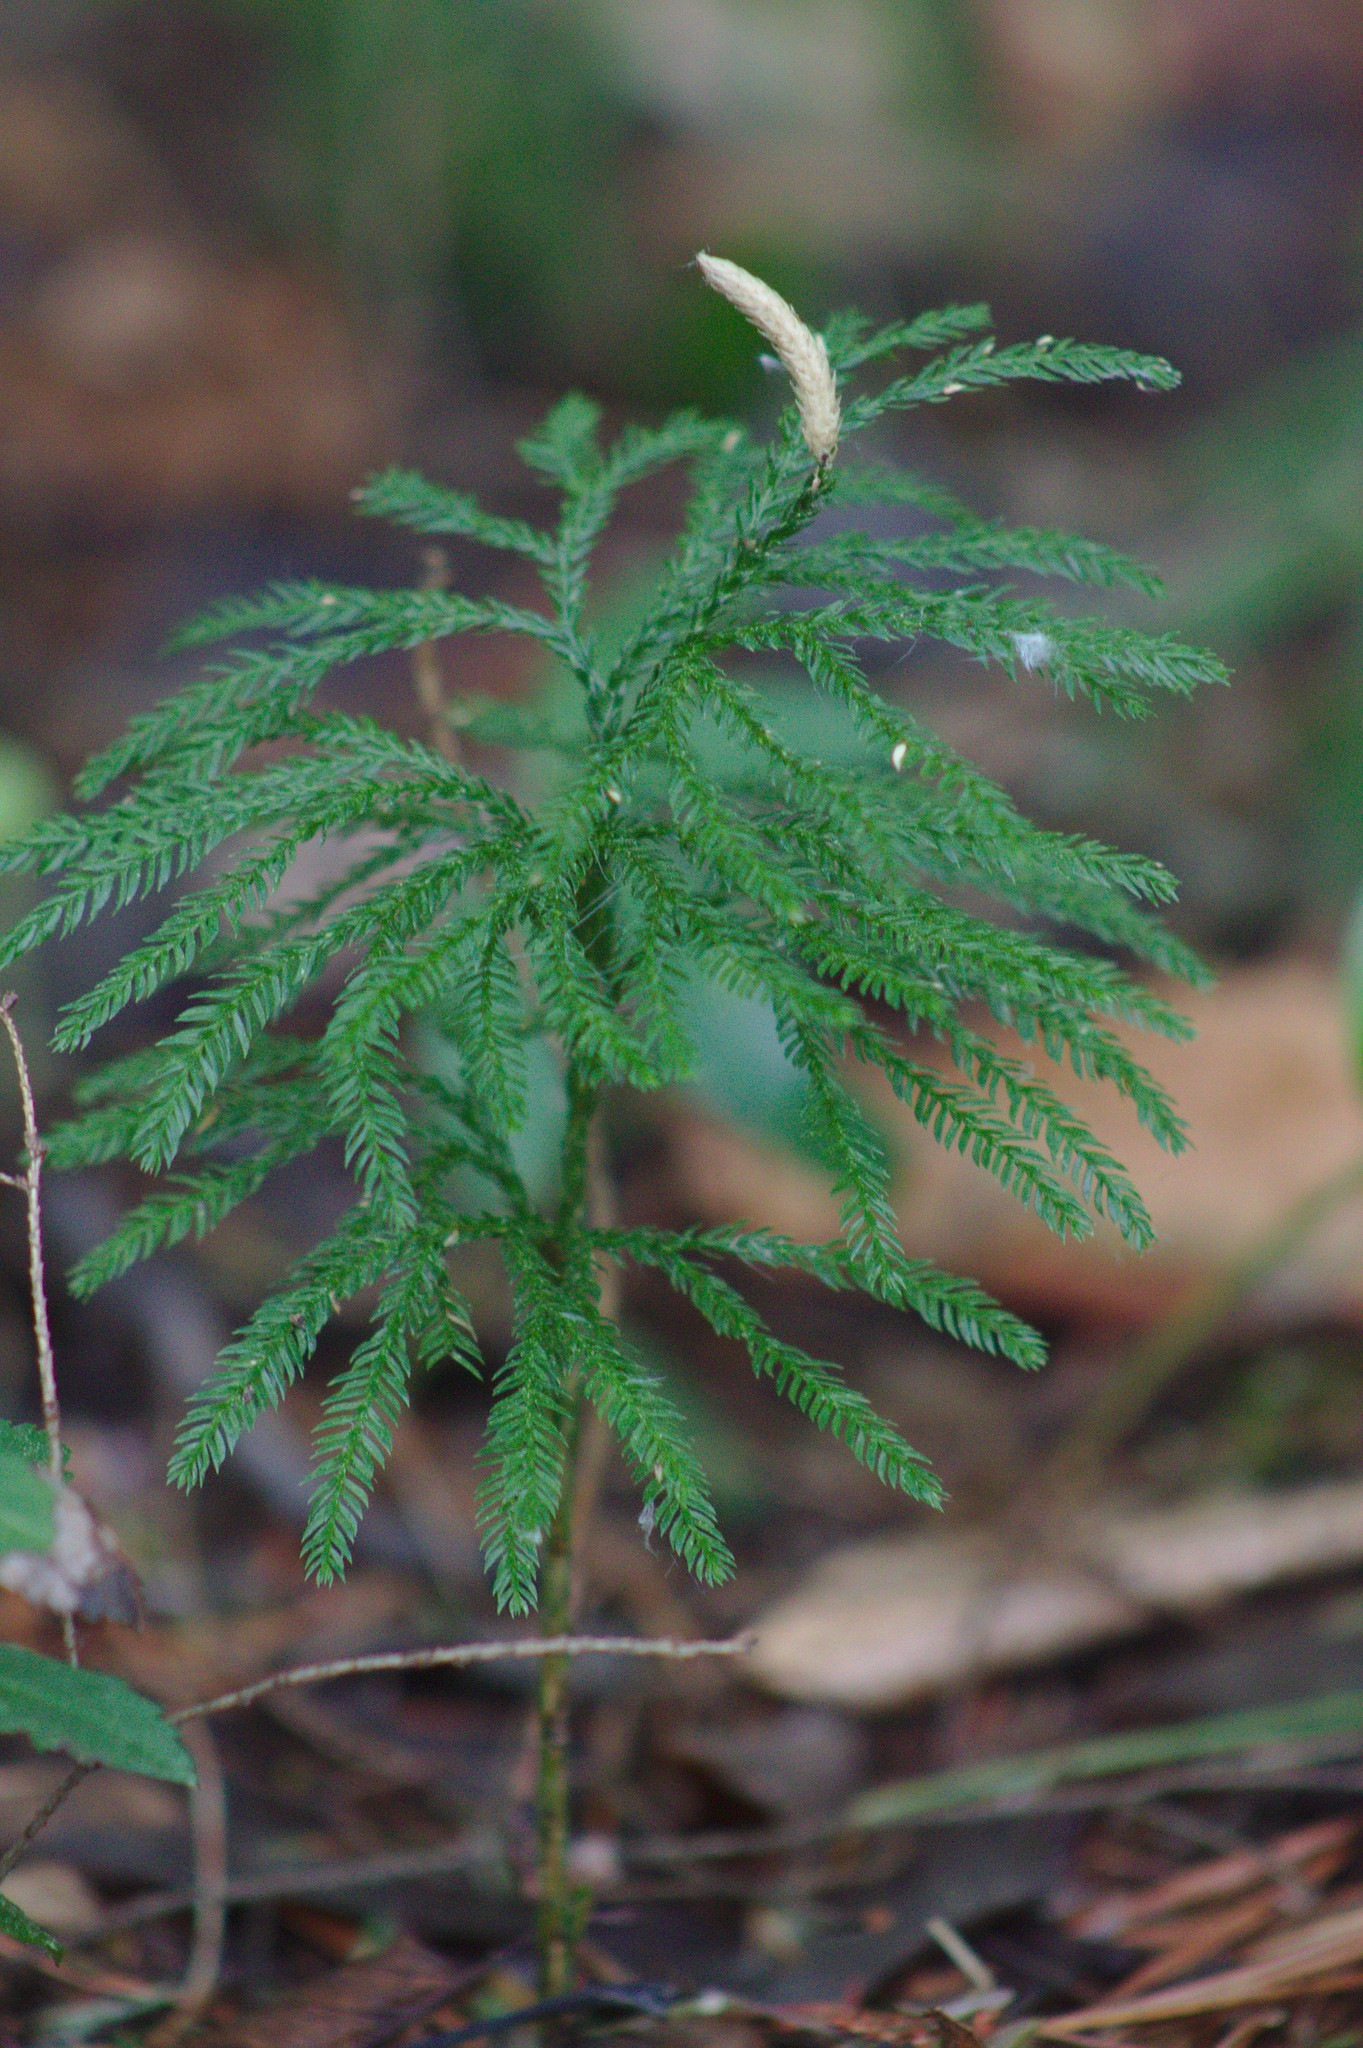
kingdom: Plantae
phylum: Tracheophyta
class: Lycopodiopsida
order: Lycopodiales
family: Lycopodiaceae
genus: Dendrolycopodium
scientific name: Dendrolycopodium obscurum
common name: Common ground-pine
